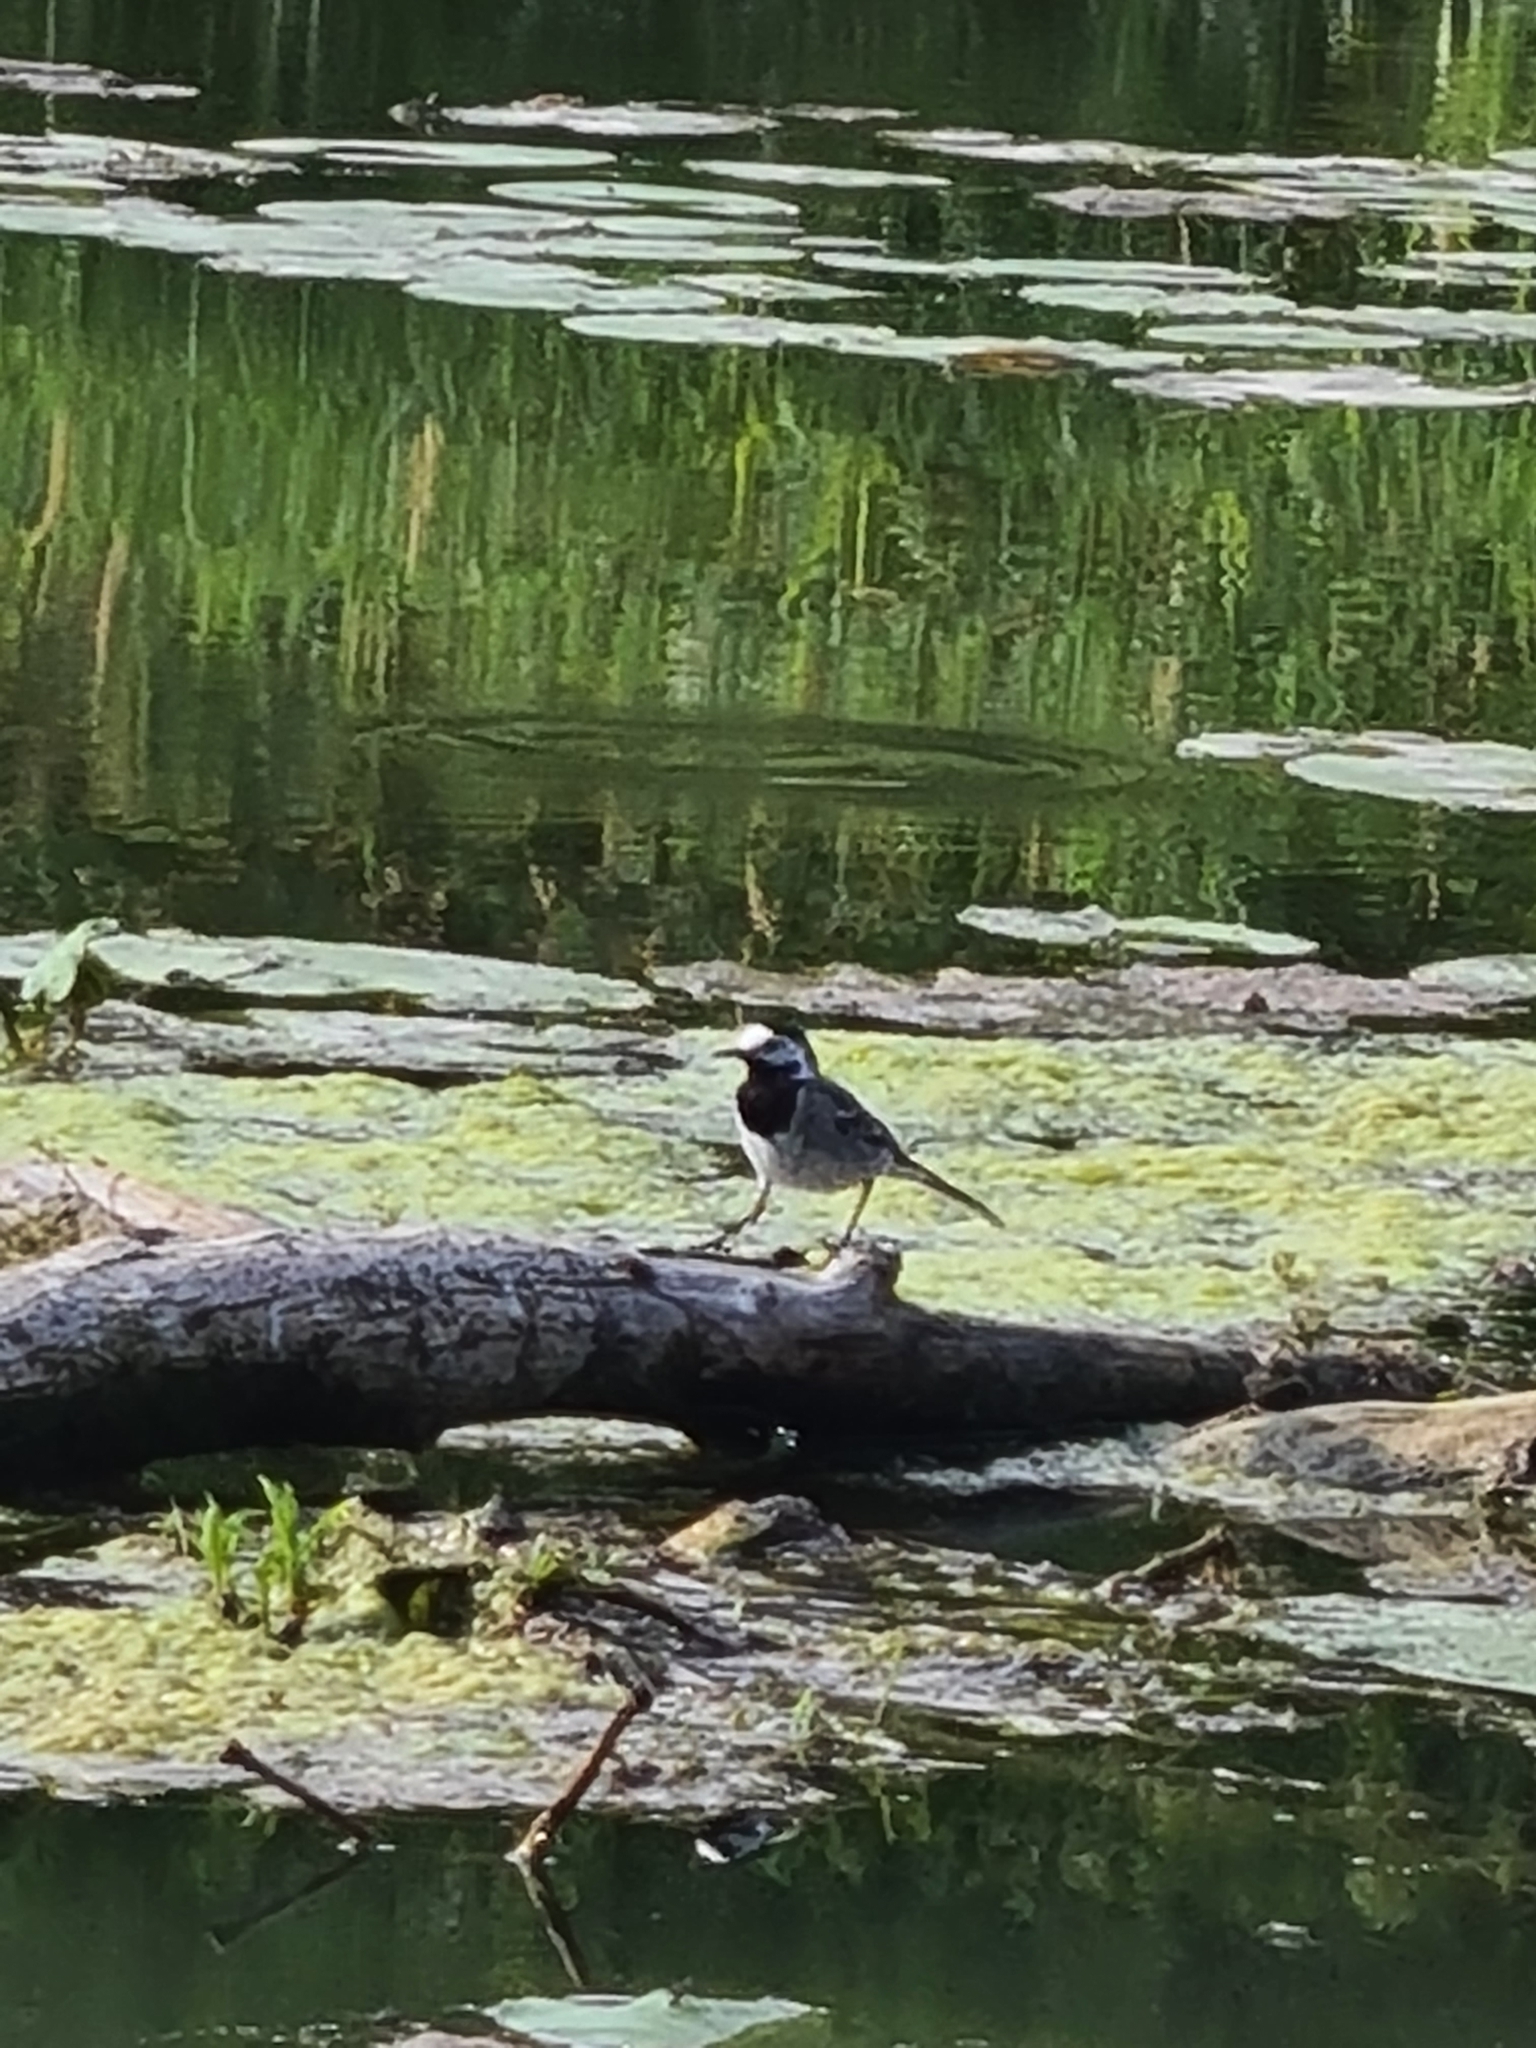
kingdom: Animalia
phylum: Chordata
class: Aves
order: Passeriformes
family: Motacillidae
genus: Motacilla
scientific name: Motacilla alba
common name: White wagtail
